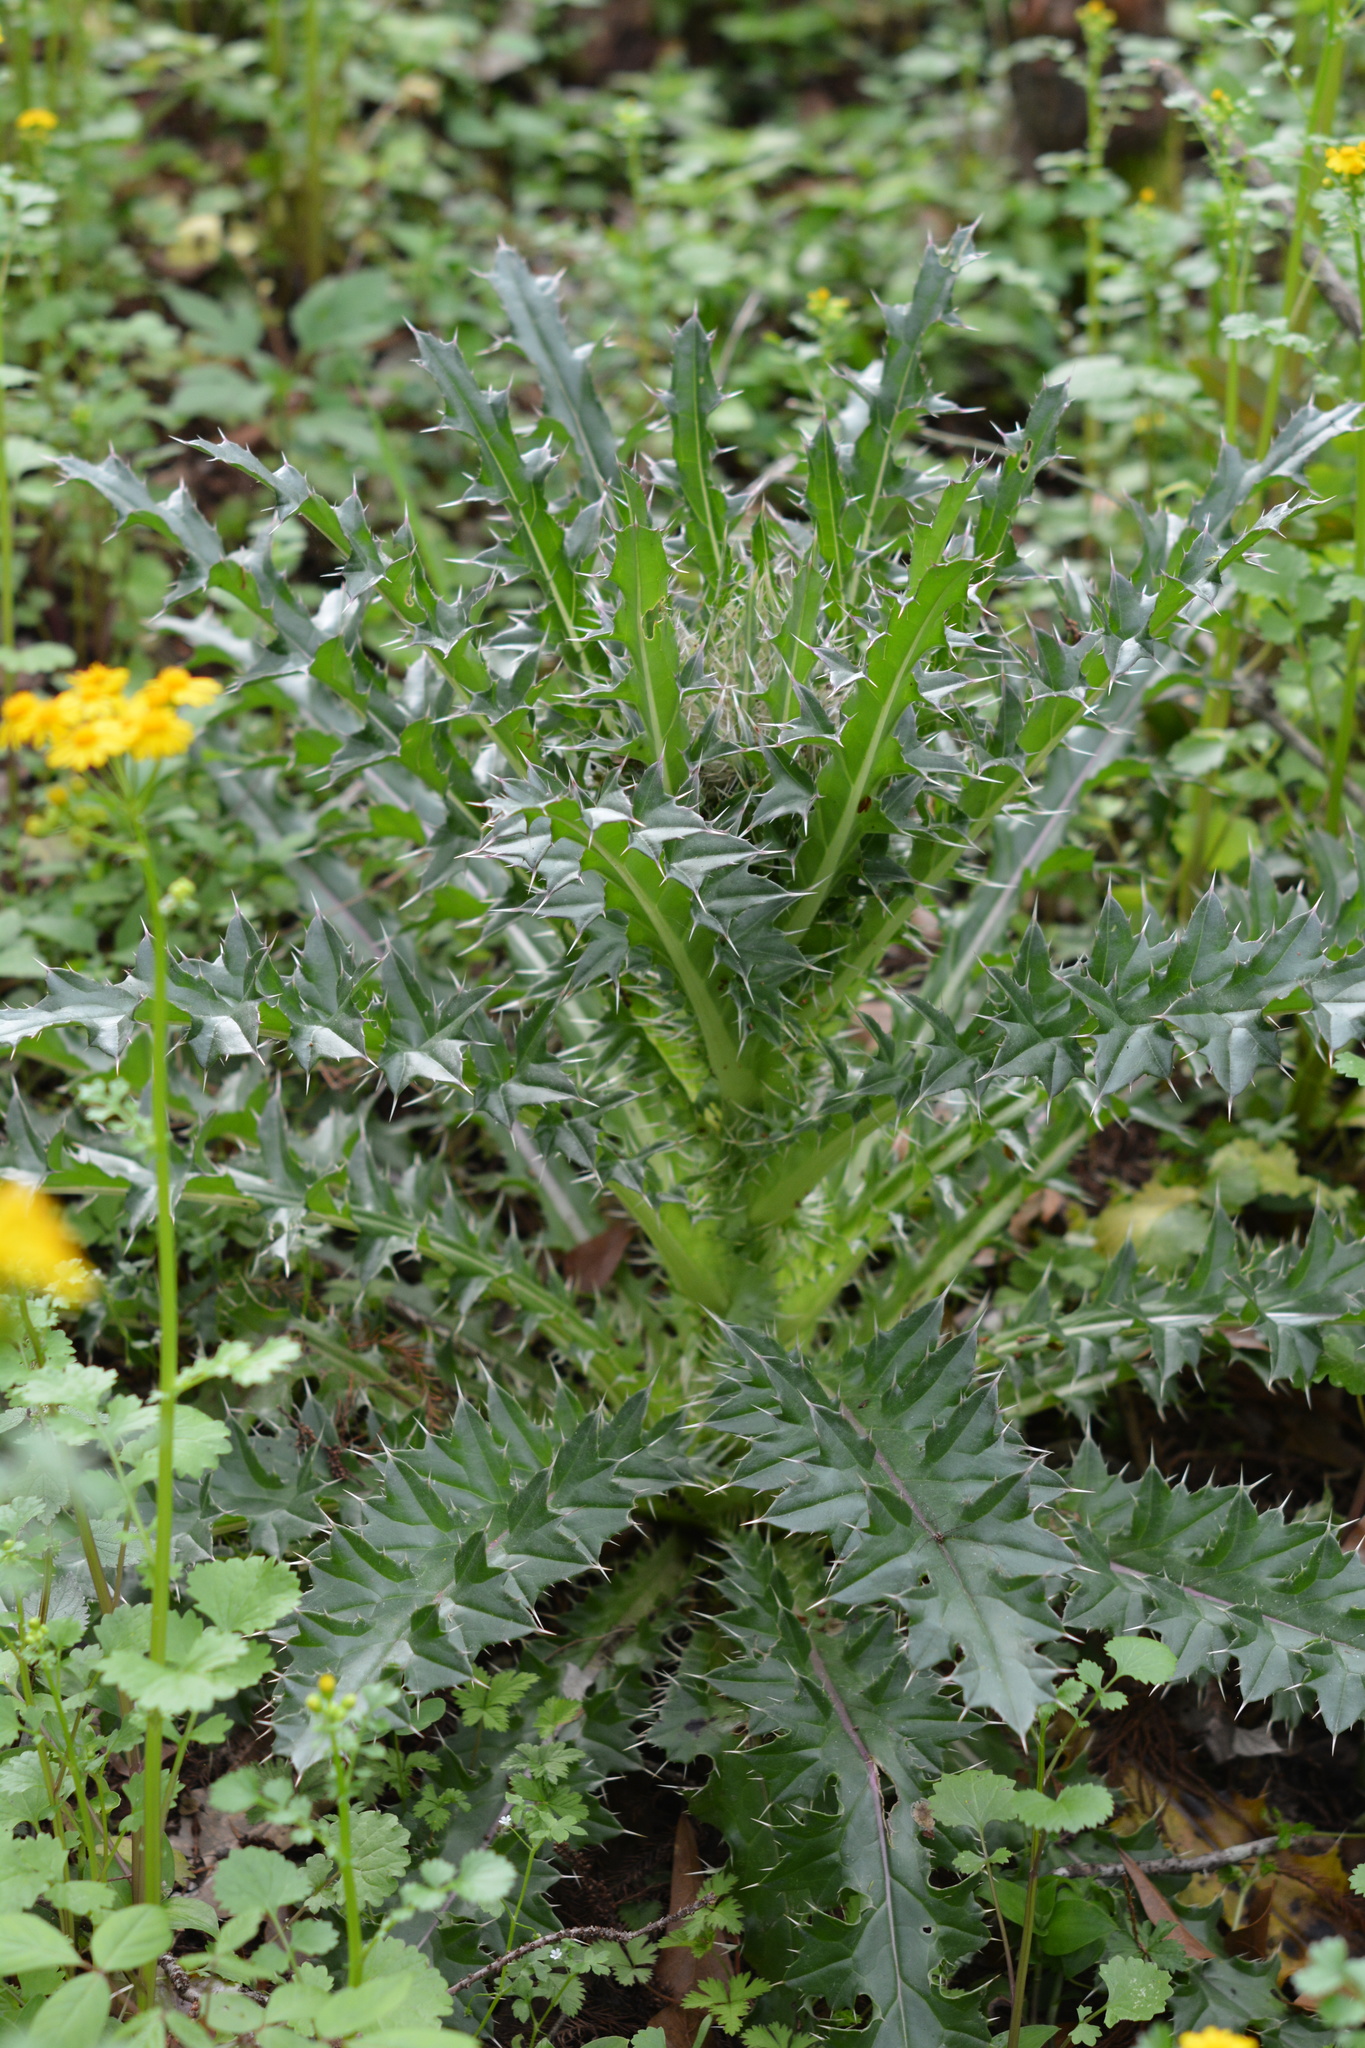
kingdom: Plantae
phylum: Tracheophyta
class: Magnoliopsida
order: Asterales
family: Asteraceae
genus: Cirsium
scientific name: Cirsium horridulum
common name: Bristly thistle
